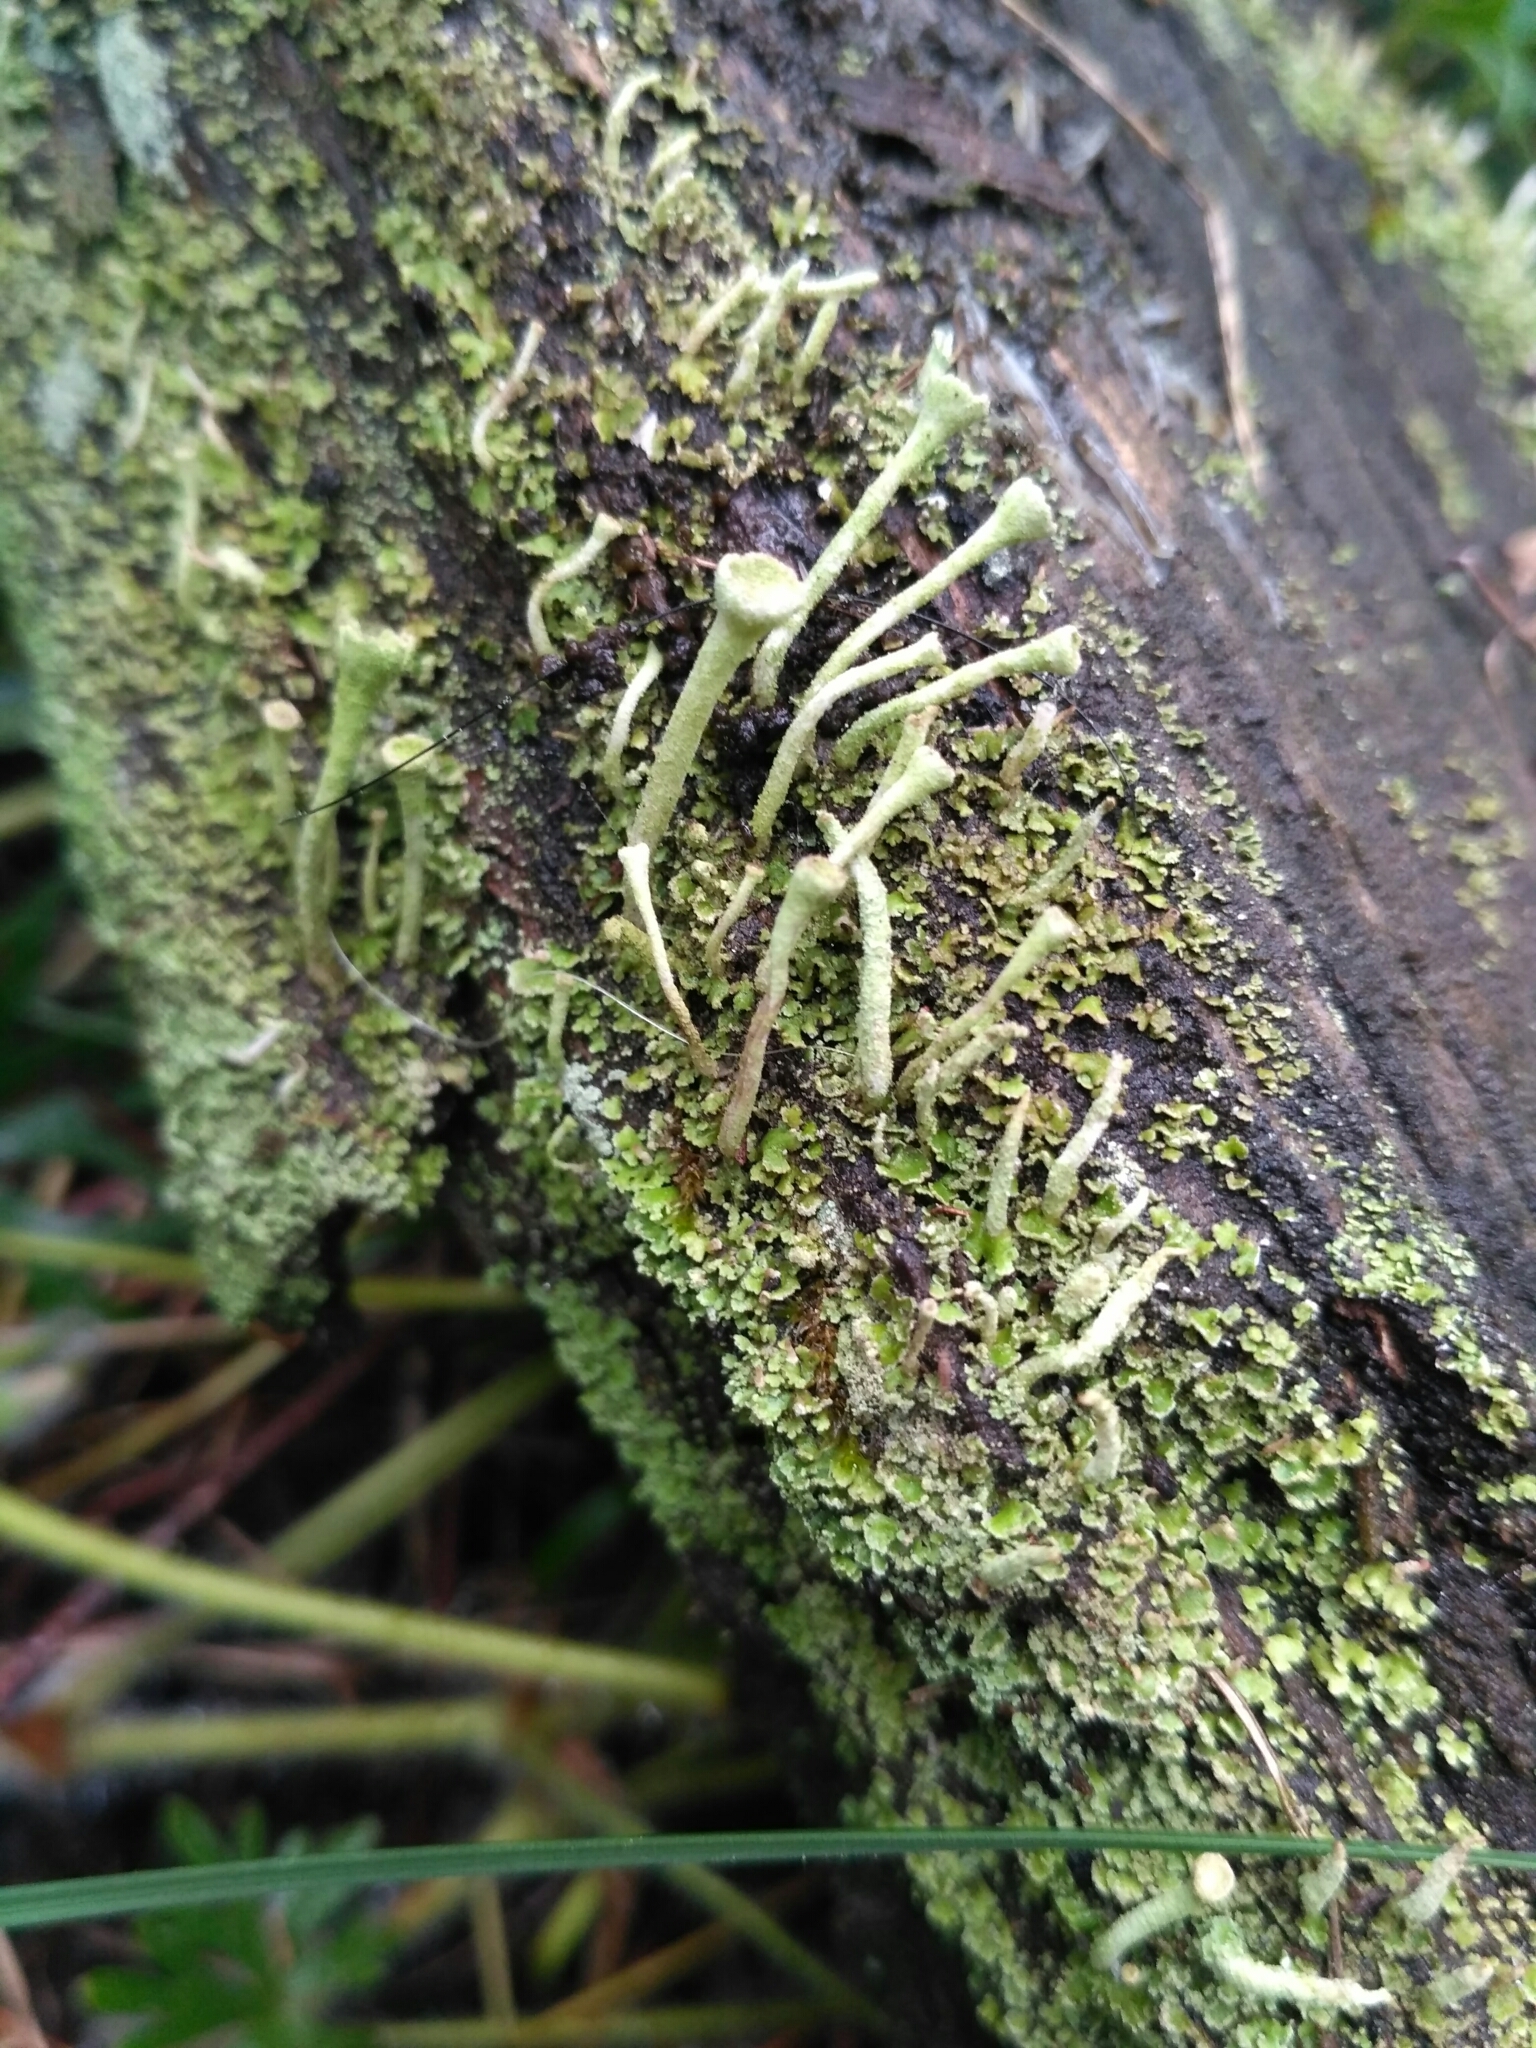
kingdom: Fungi
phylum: Ascomycota
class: Lecanoromycetes
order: Lecanorales
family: Cladoniaceae
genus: Cladonia
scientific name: Cladonia fimbriata
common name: Powdered trumpet lichen
